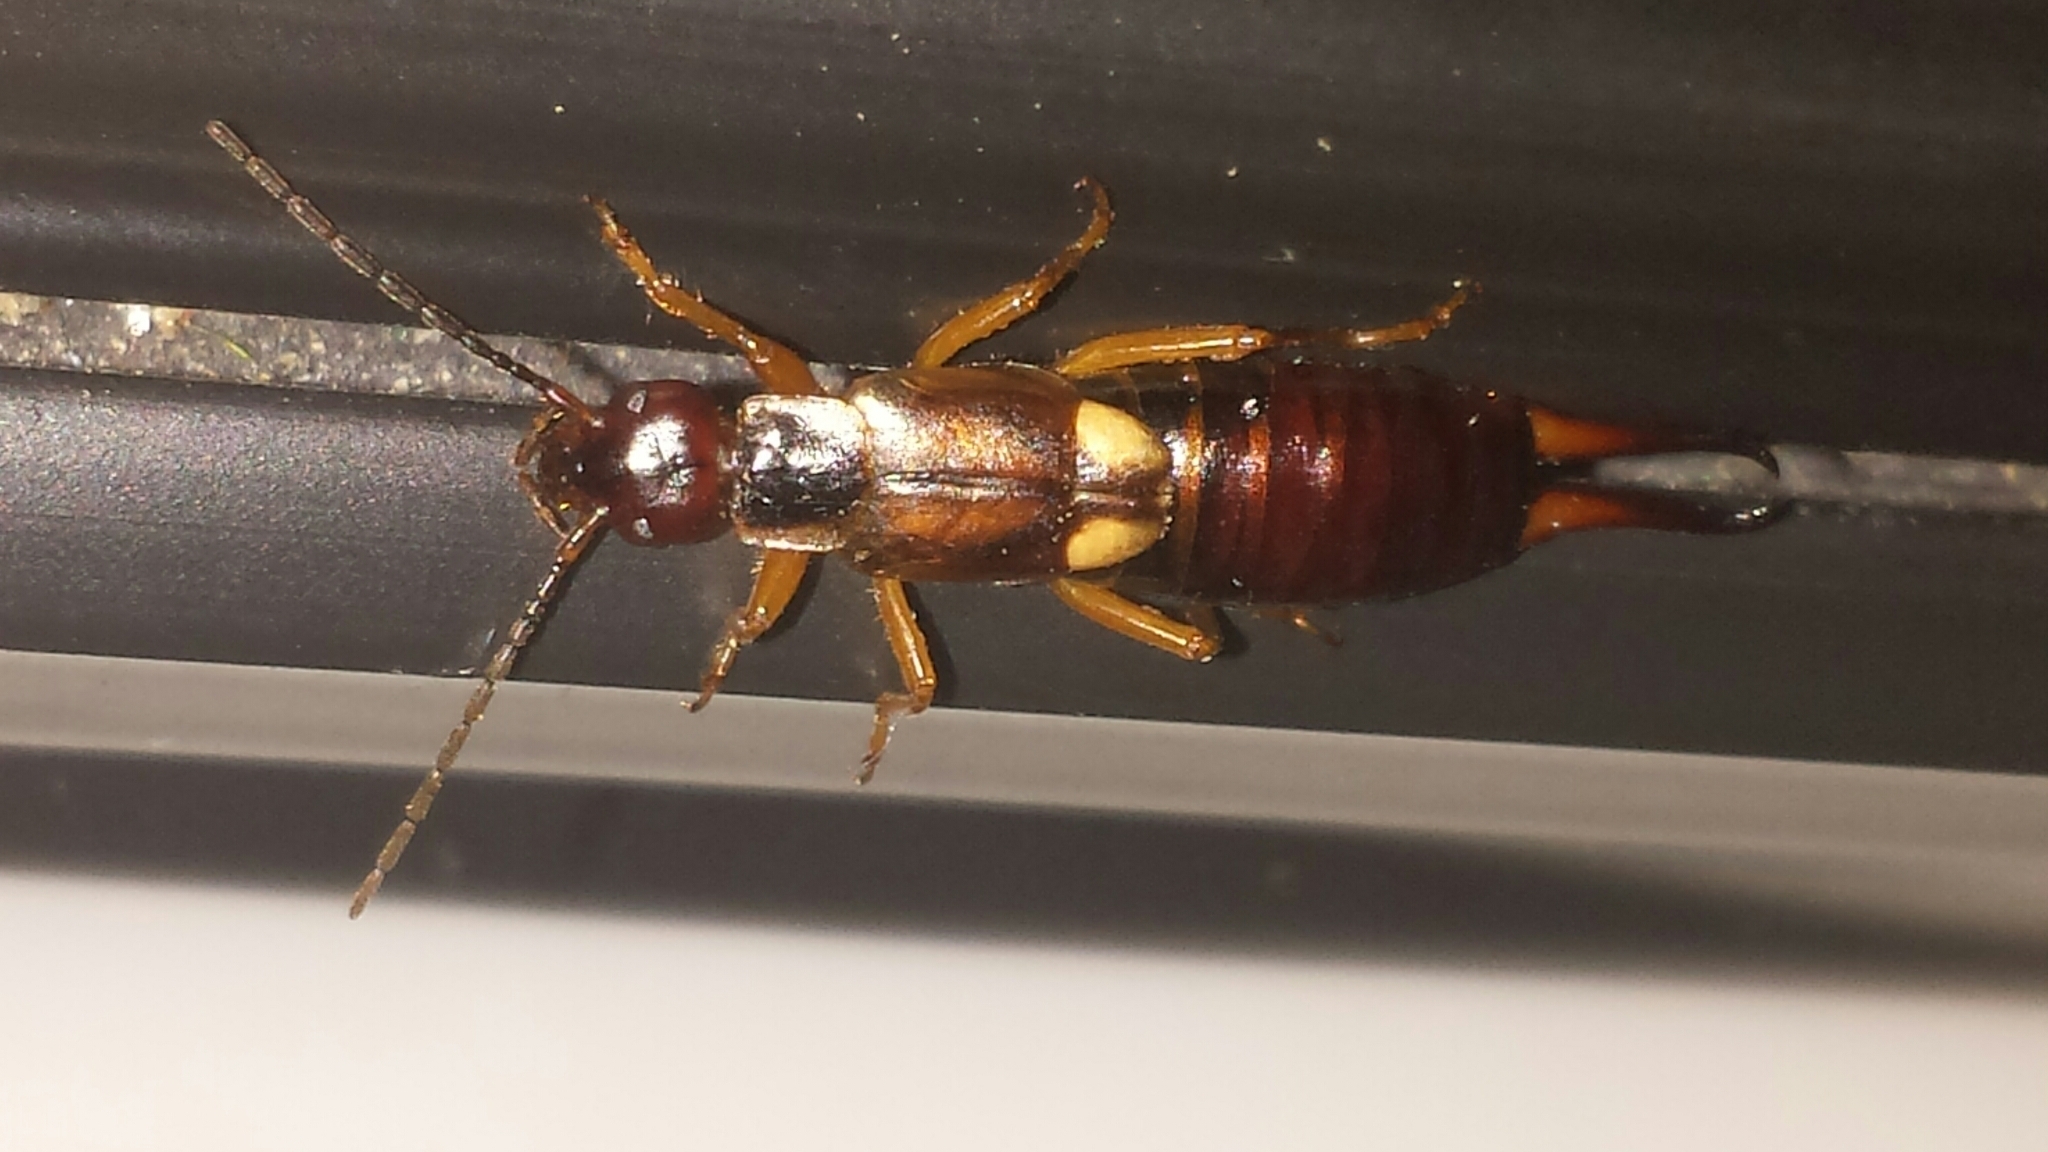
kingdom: Animalia
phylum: Arthropoda
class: Insecta
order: Dermaptera
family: Forficulidae
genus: Forficula
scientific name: Forficula
